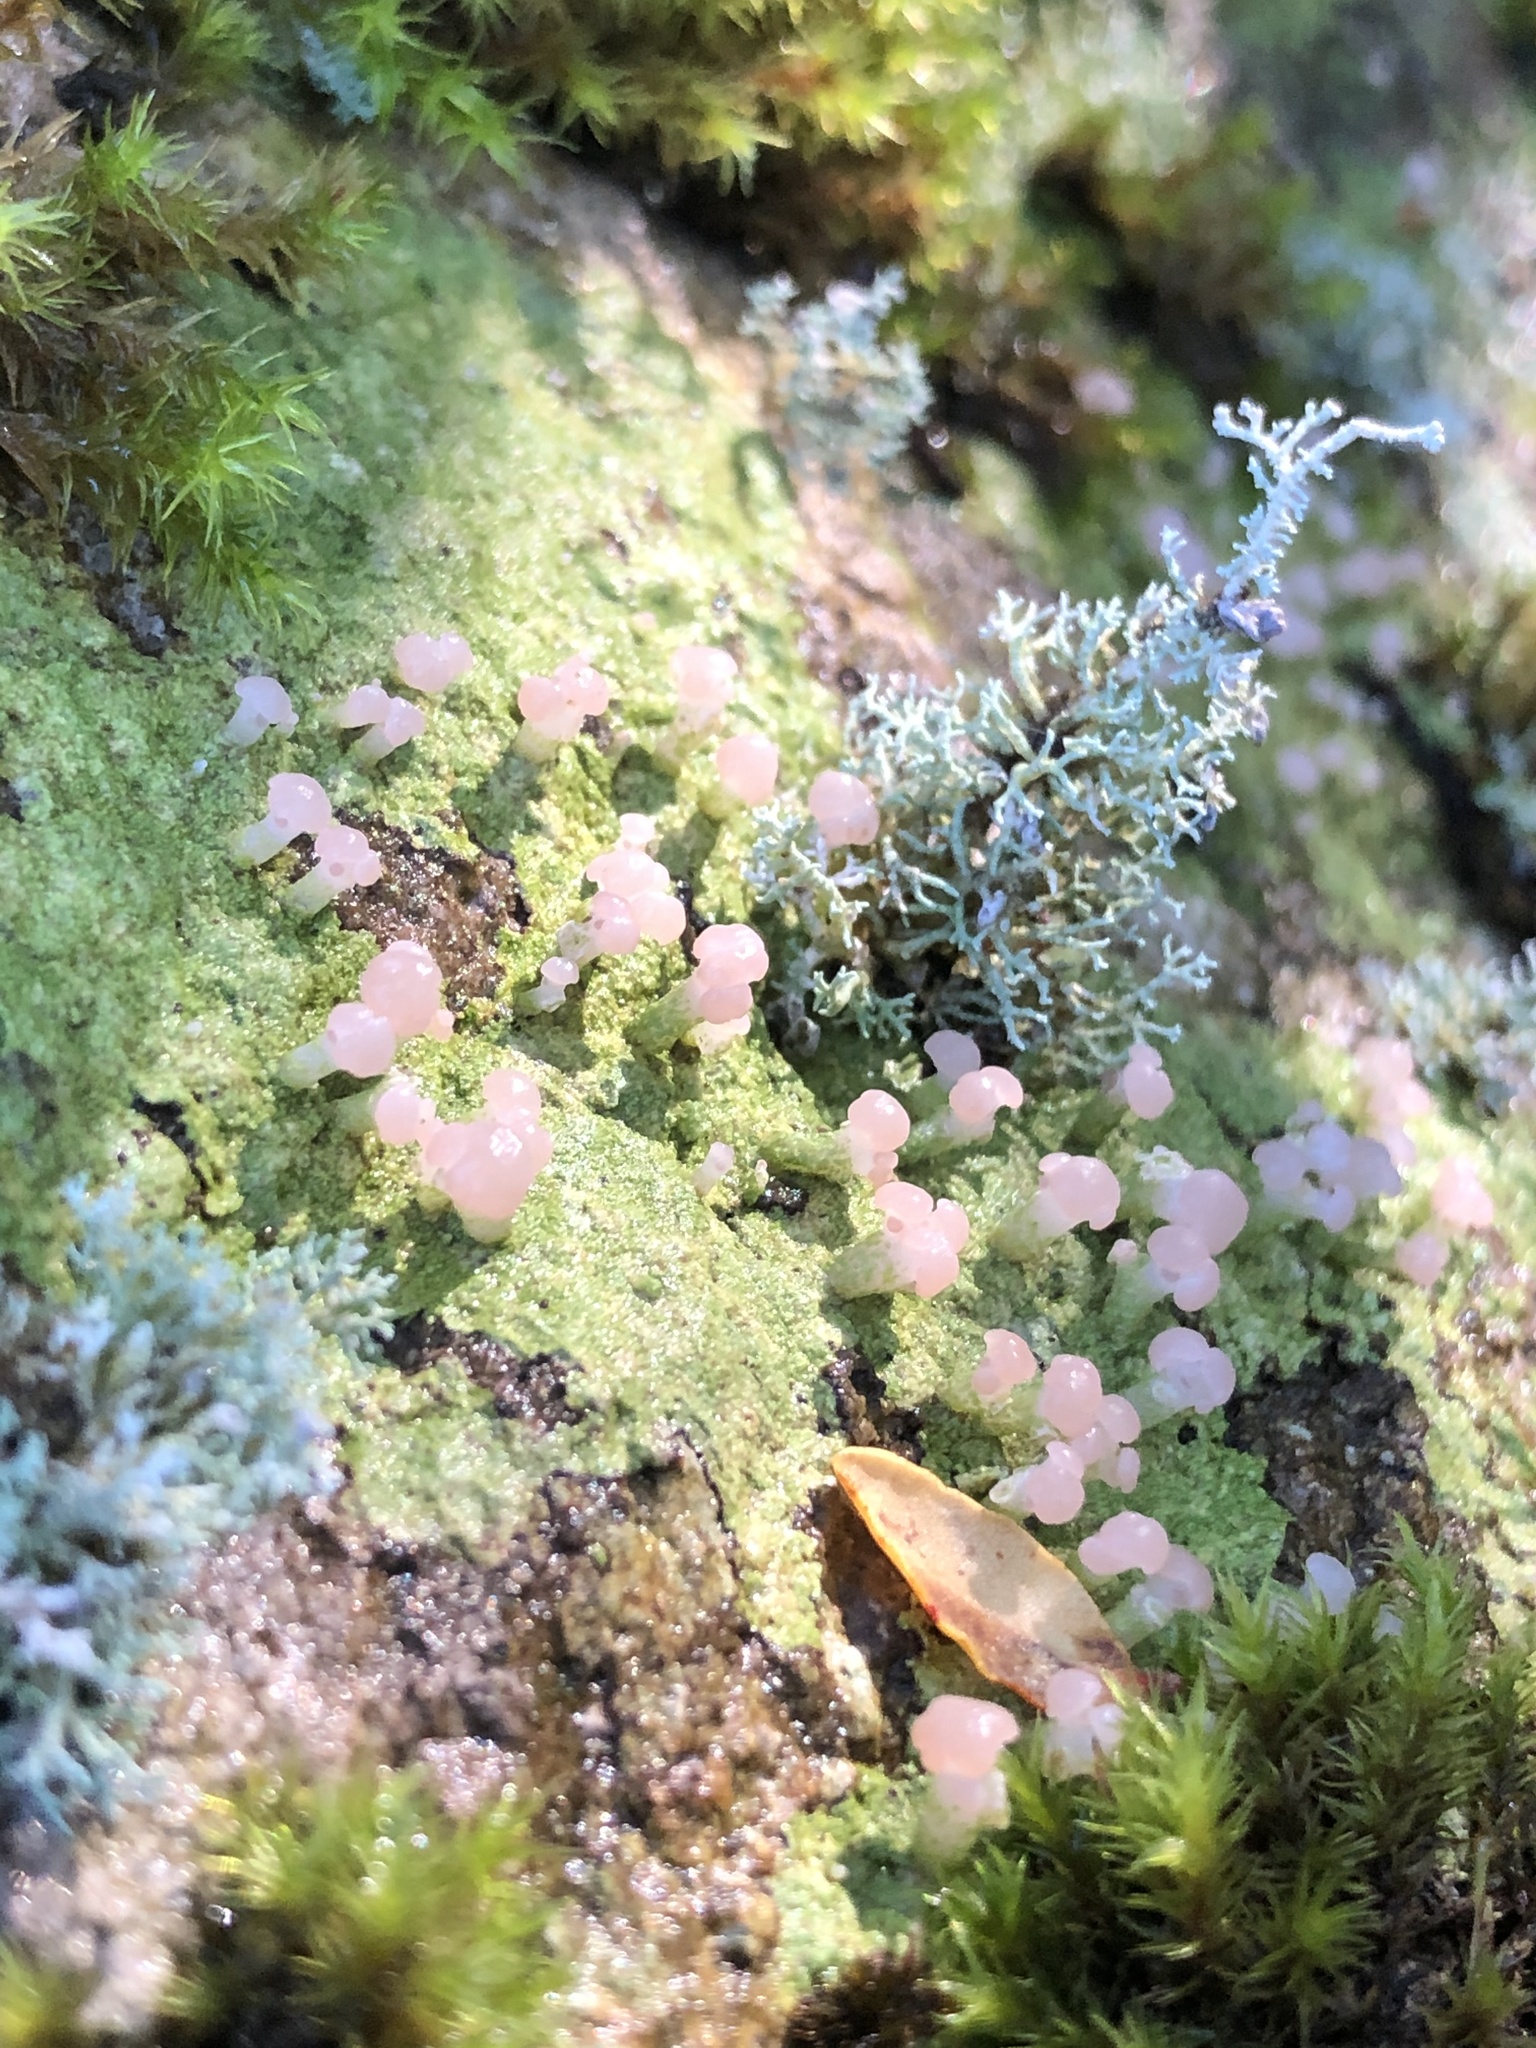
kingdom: Fungi
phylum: Ascomycota
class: Lecanoromycetes
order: Baeomycetales
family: Baeomycetaceae
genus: Baeomyces
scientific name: Baeomyces heteromorphus
